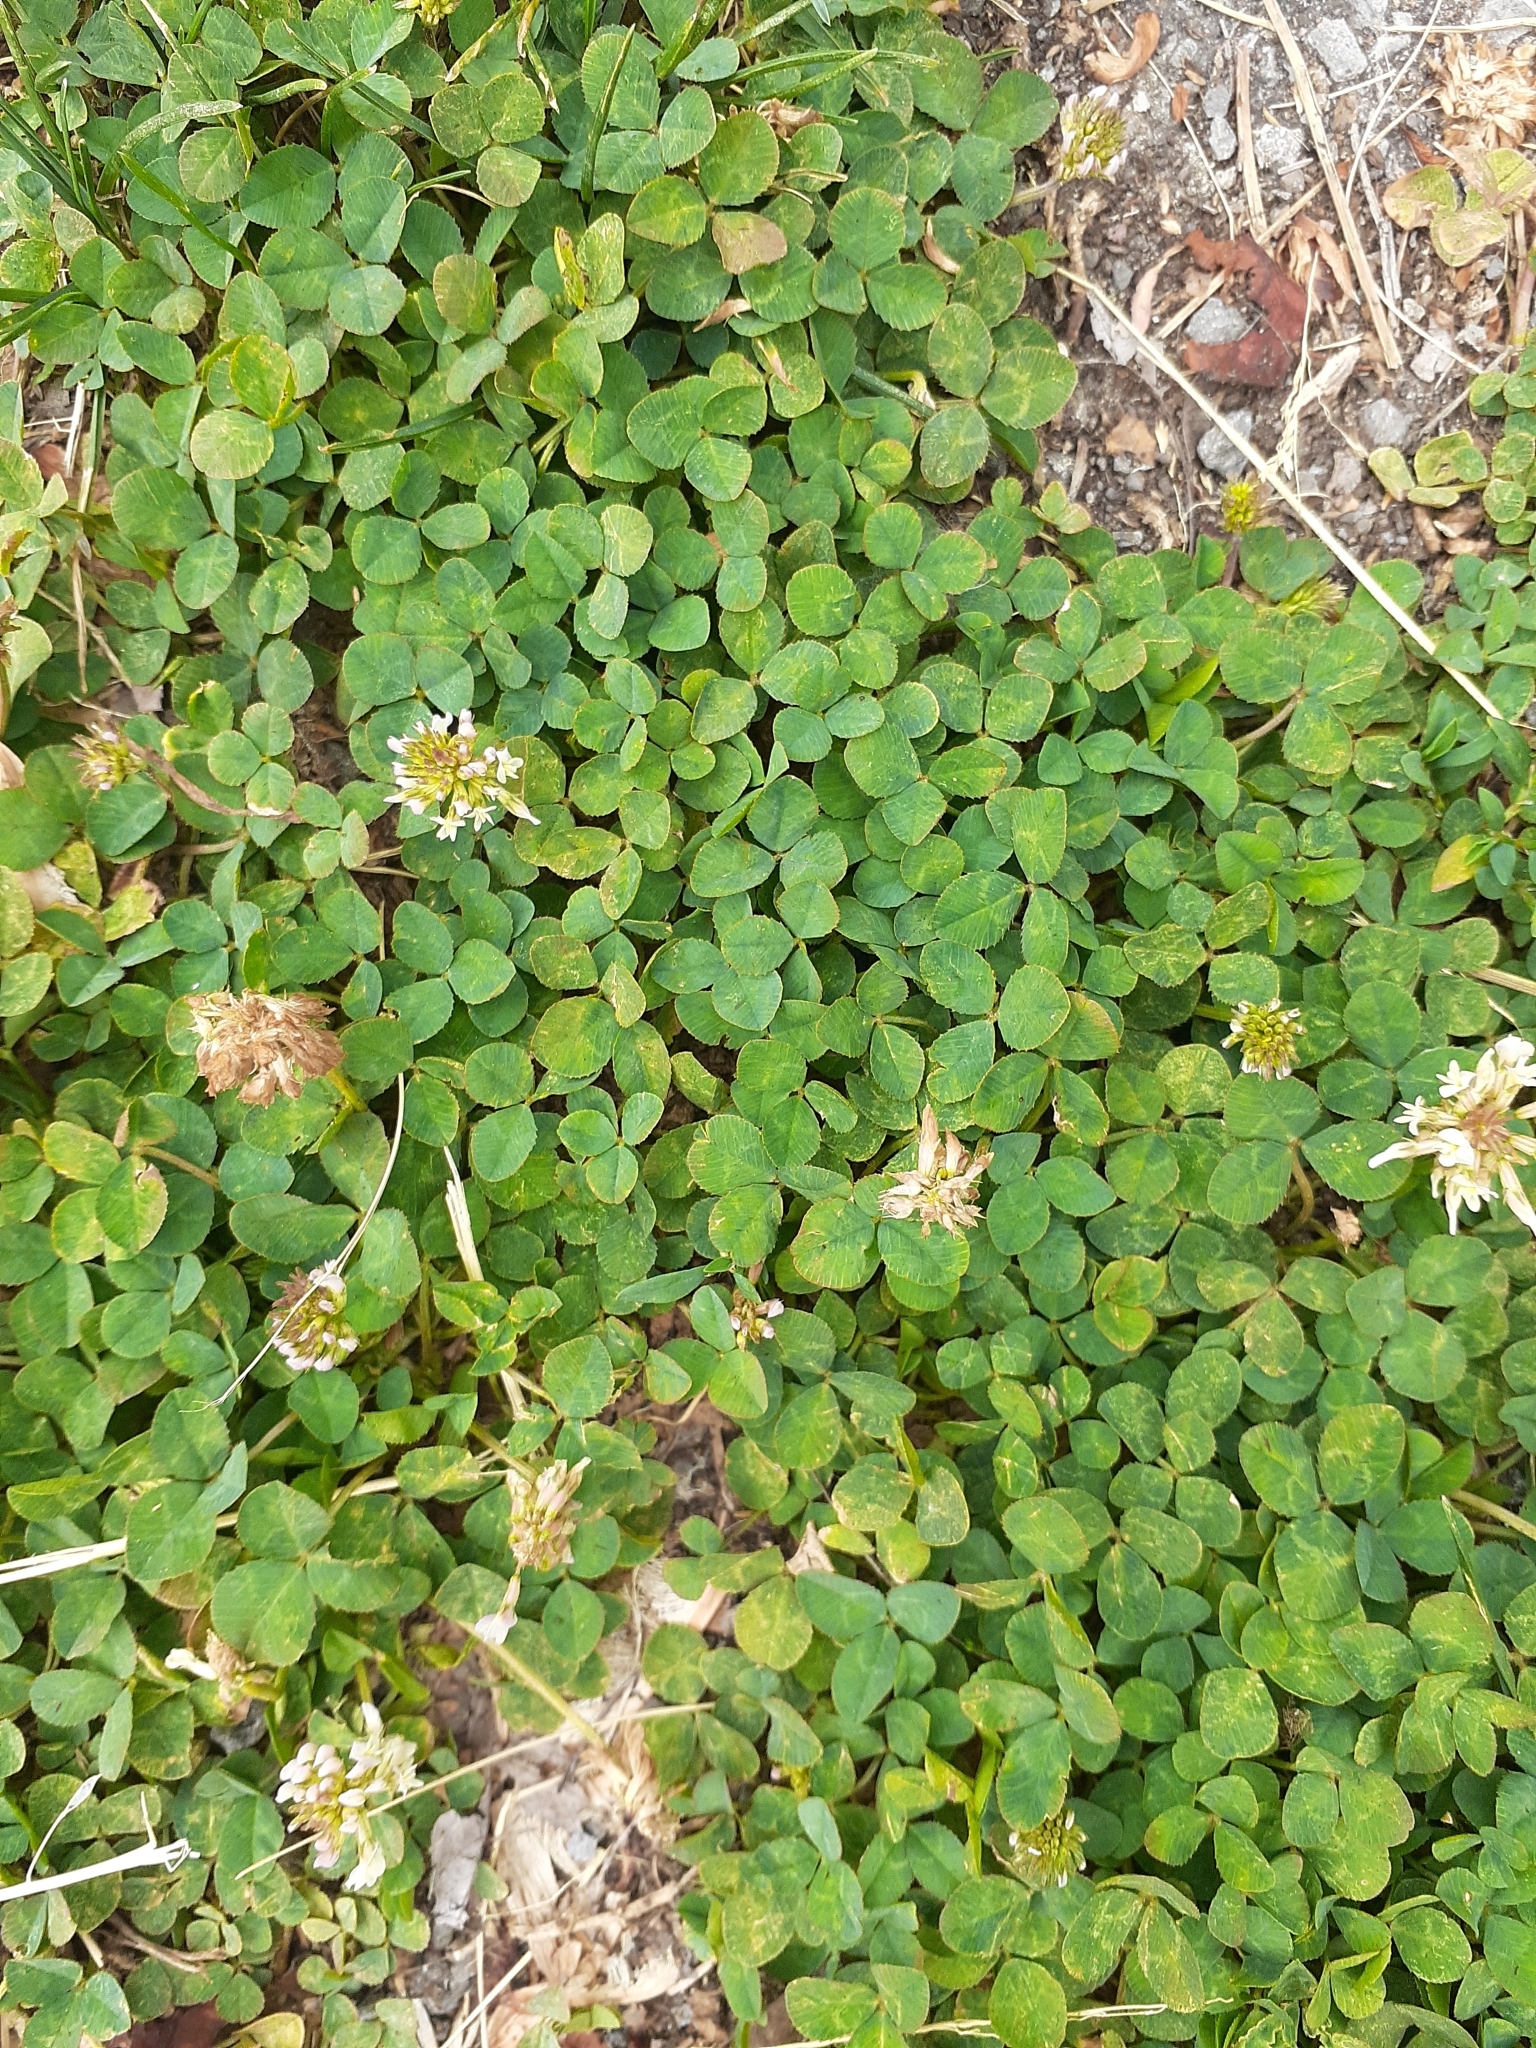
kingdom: Plantae
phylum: Tracheophyta
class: Magnoliopsida
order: Fabales
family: Fabaceae
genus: Trifolium
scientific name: Trifolium repens
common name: White clover
